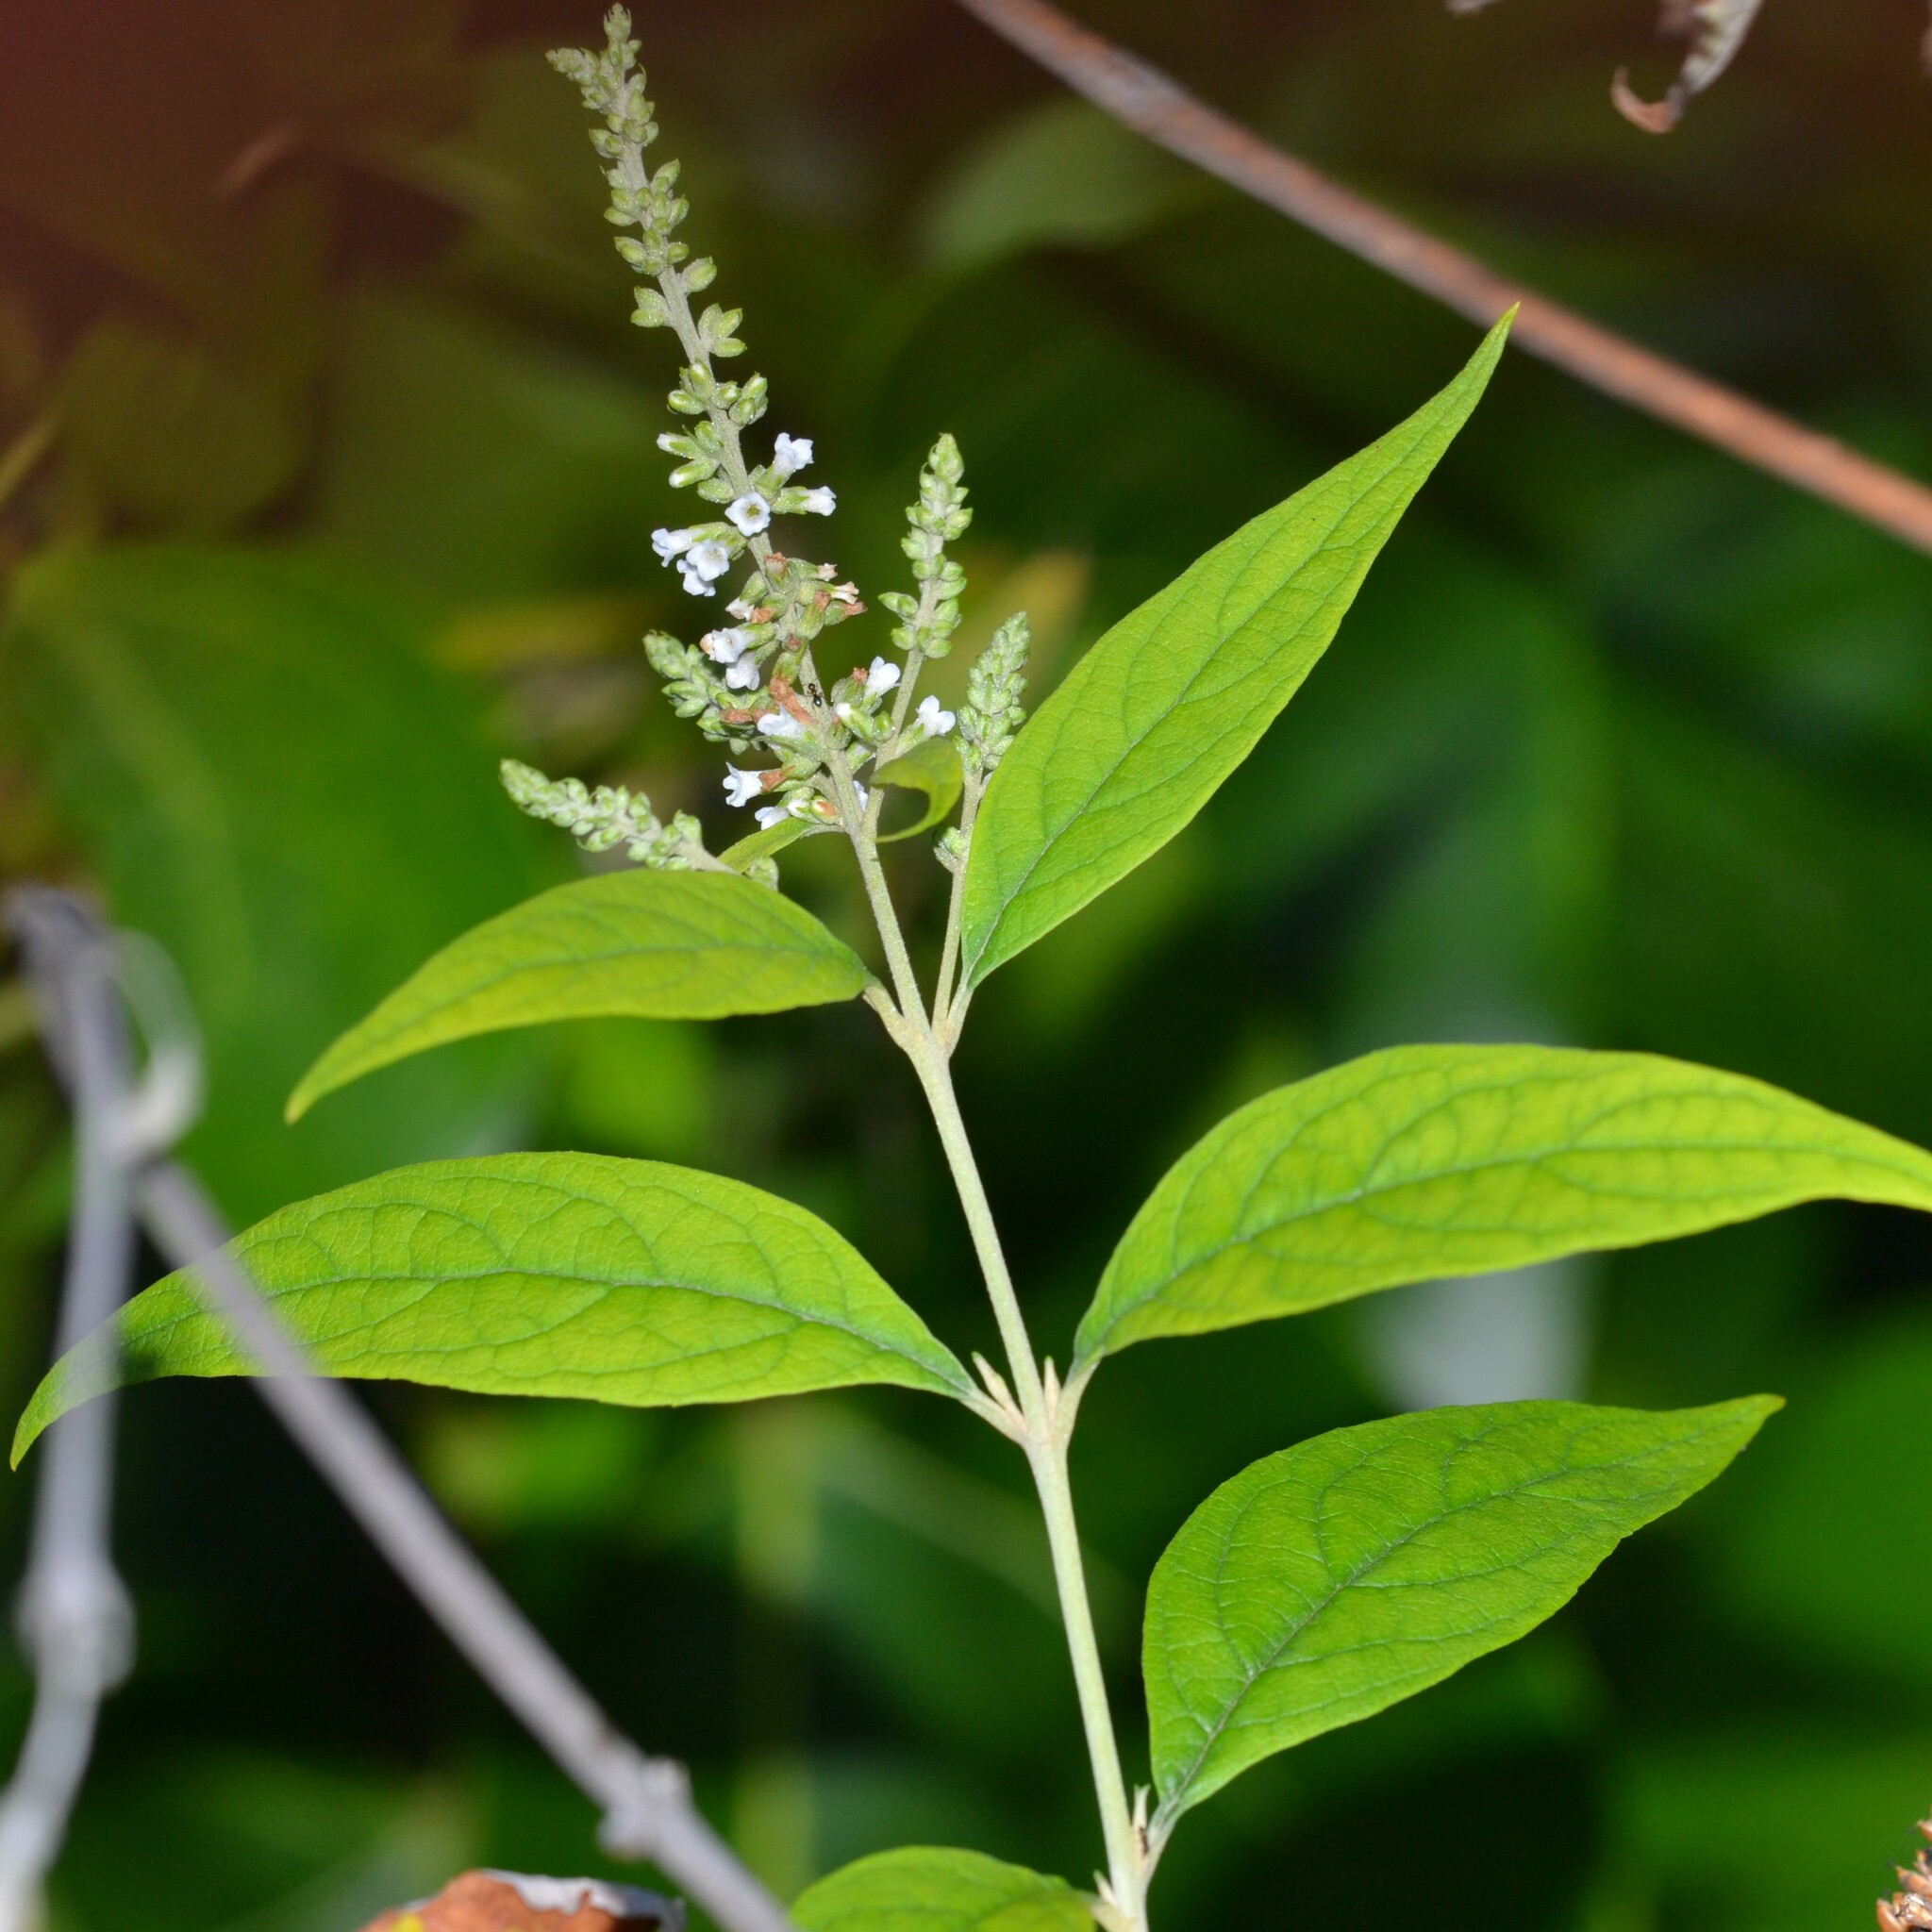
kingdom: Plantae
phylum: Tracheophyta
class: Magnoliopsida
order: Lamiales
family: Scrophulariaceae
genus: Buddleja
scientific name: Buddleja asiatica
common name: Dog tail
